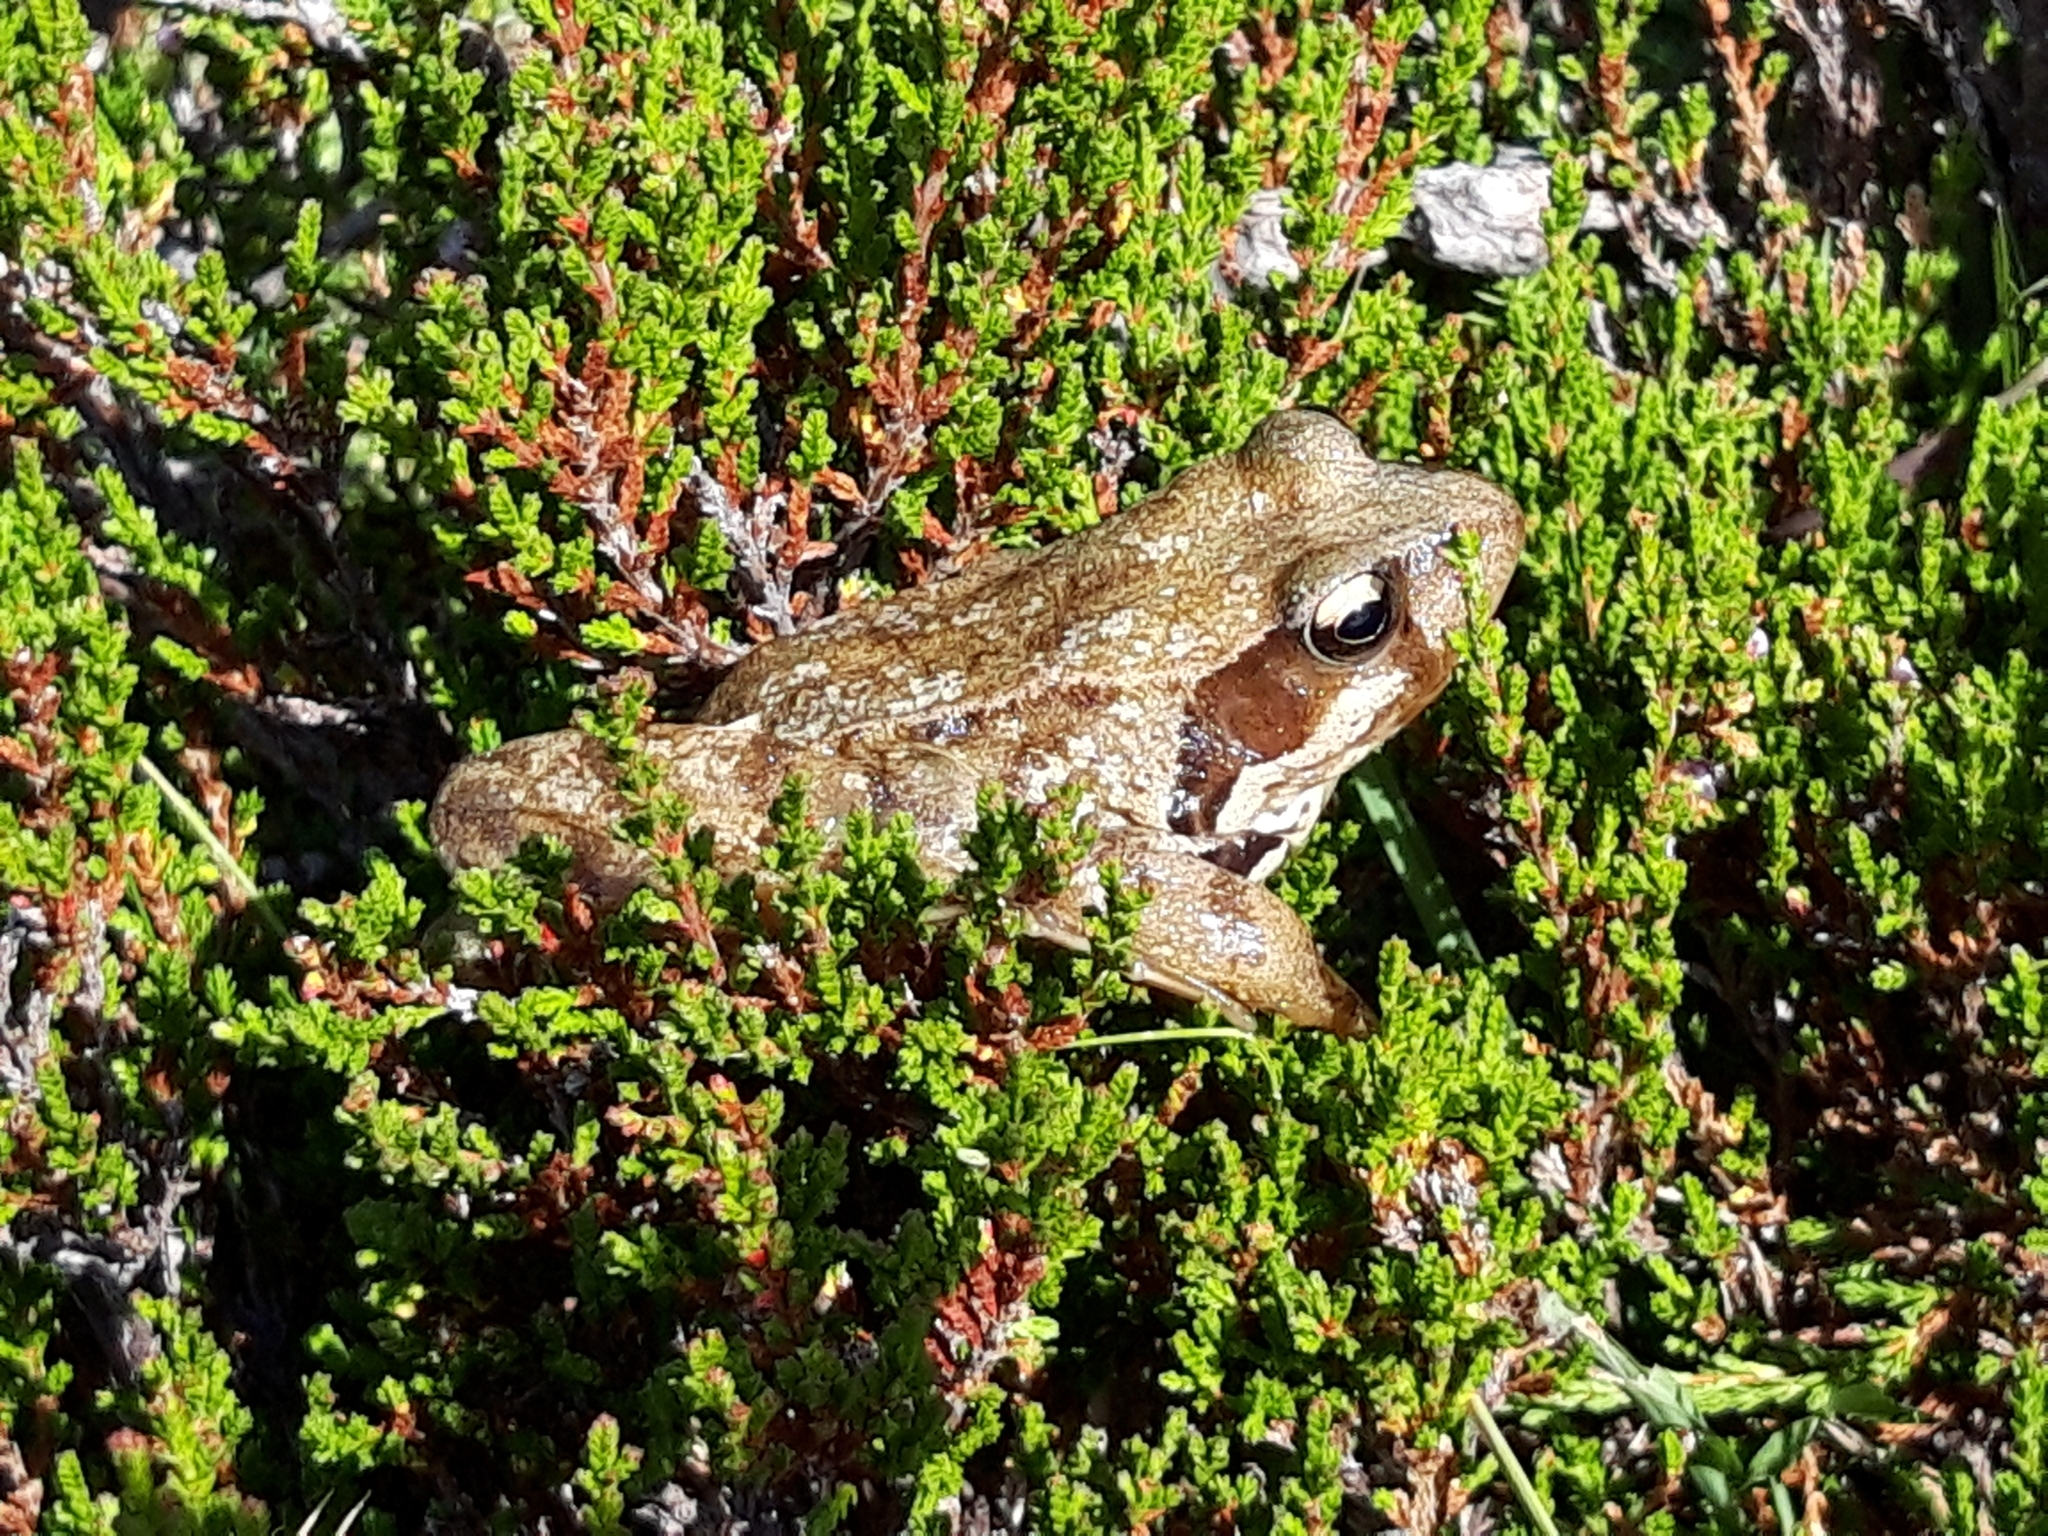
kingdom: Animalia
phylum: Chordata
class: Amphibia
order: Anura
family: Ranidae
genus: Rana
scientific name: Rana temporaria
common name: Common frog
